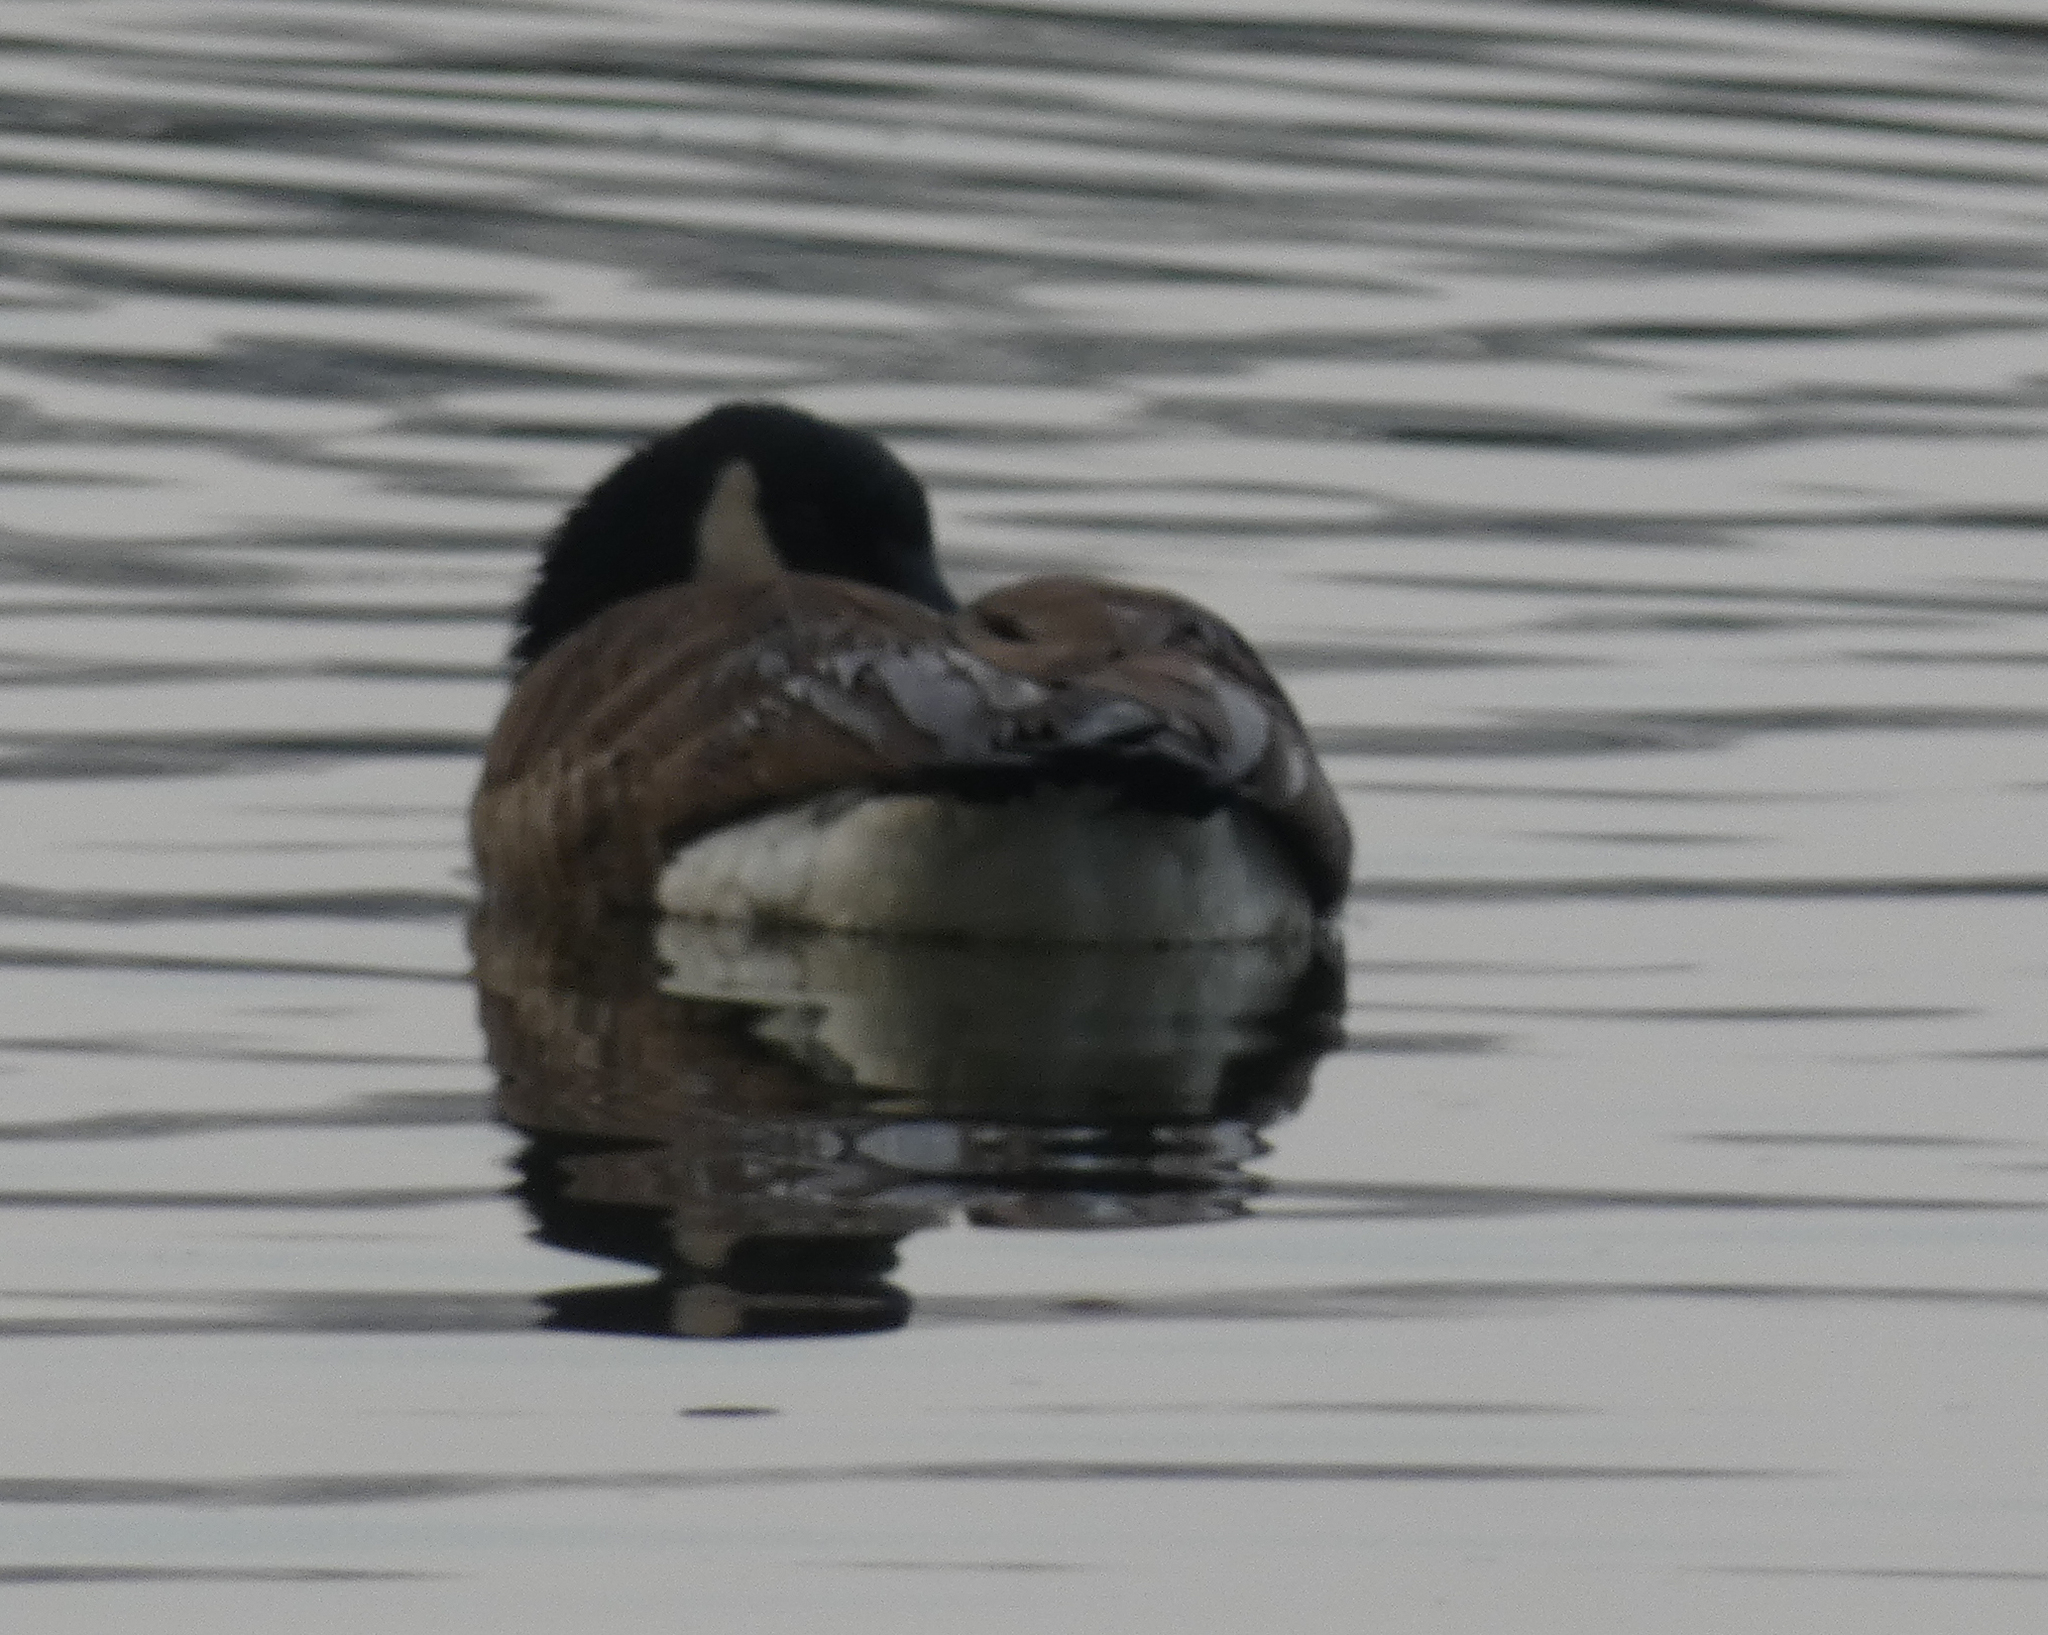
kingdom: Animalia
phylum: Chordata
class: Aves
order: Anseriformes
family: Anatidae
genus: Branta
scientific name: Branta canadensis
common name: Canada goose
